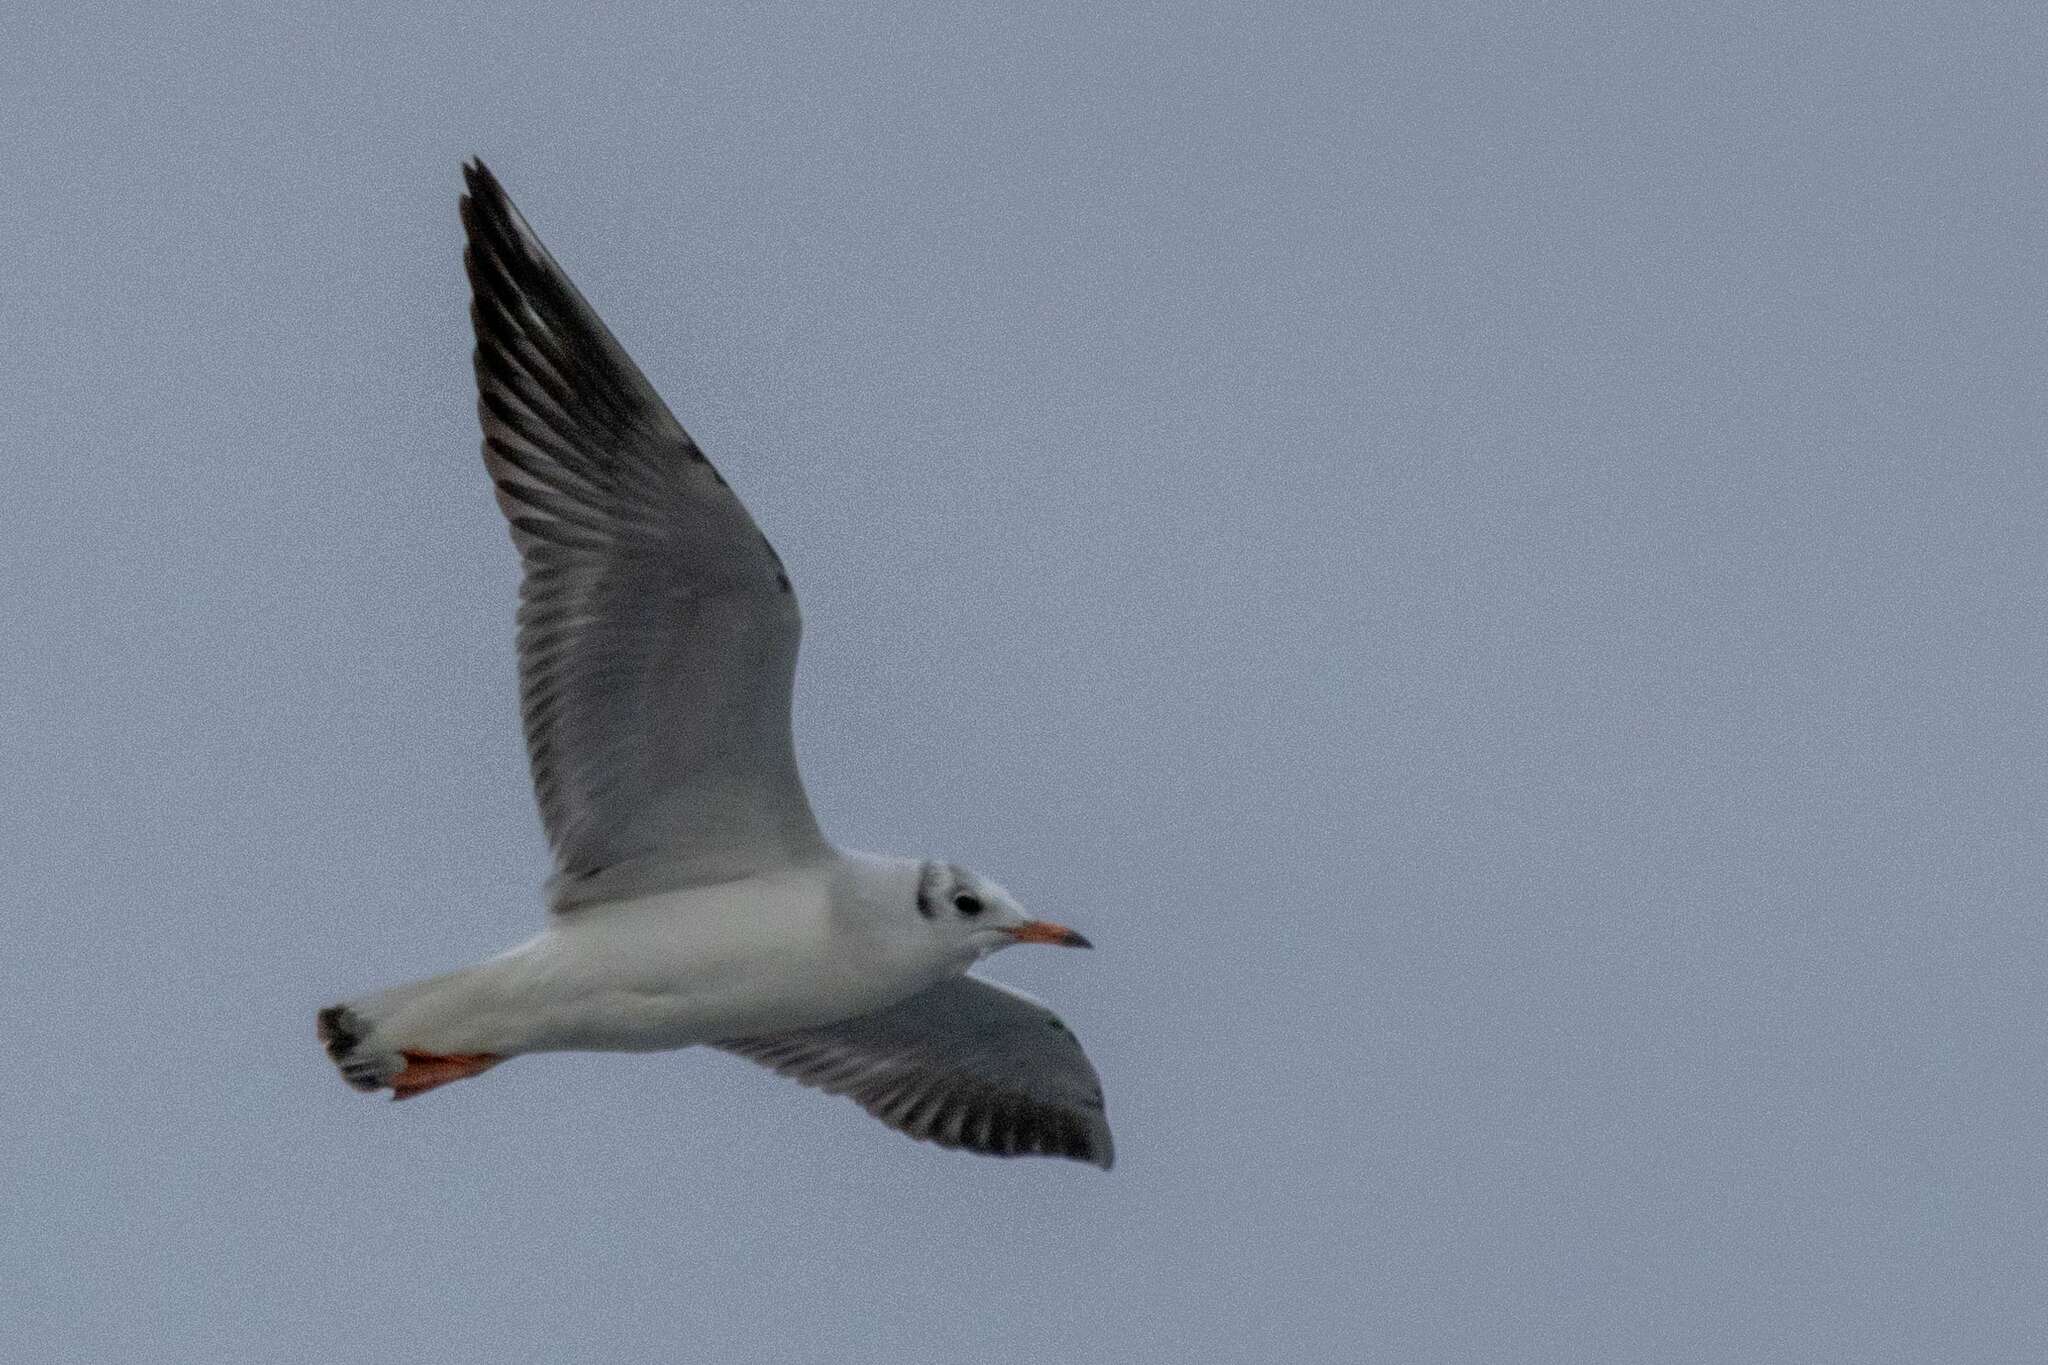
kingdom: Animalia
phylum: Chordata
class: Aves
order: Charadriiformes
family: Laridae
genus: Chroicocephalus
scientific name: Chroicocephalus ridibundus
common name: Black-headed gull
